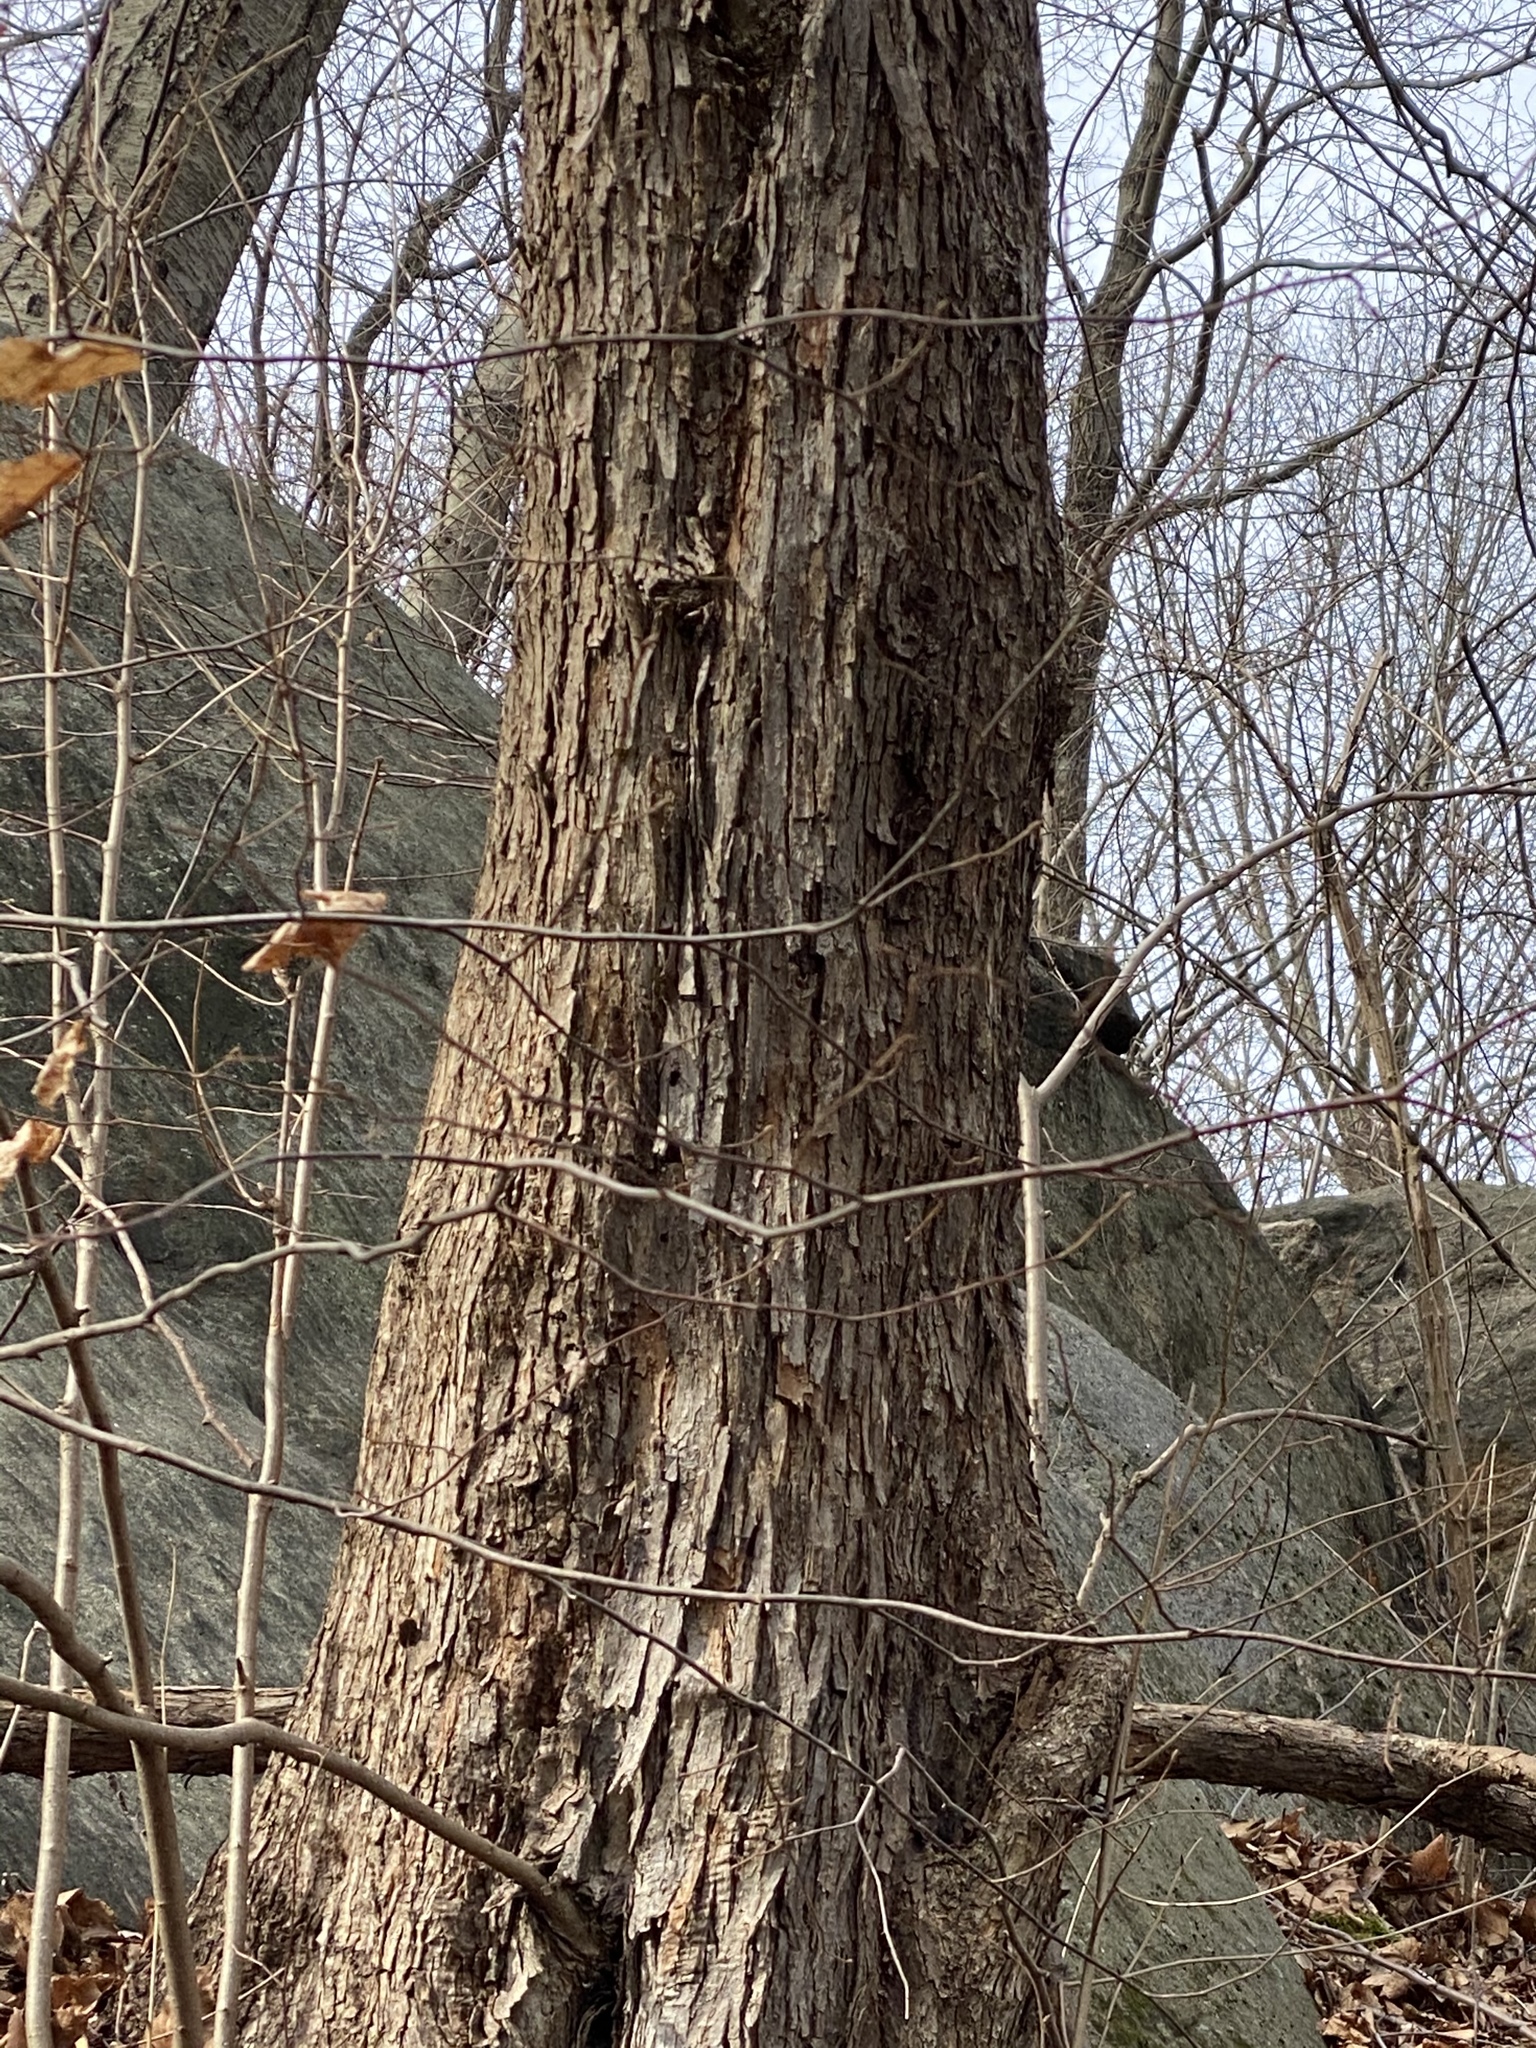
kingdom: Plantae
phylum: Tracheophyta
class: Magnoliopsida
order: Fagales
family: Betulaceae
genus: Ostrya
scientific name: Ostrya virginiana
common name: Ironwood
